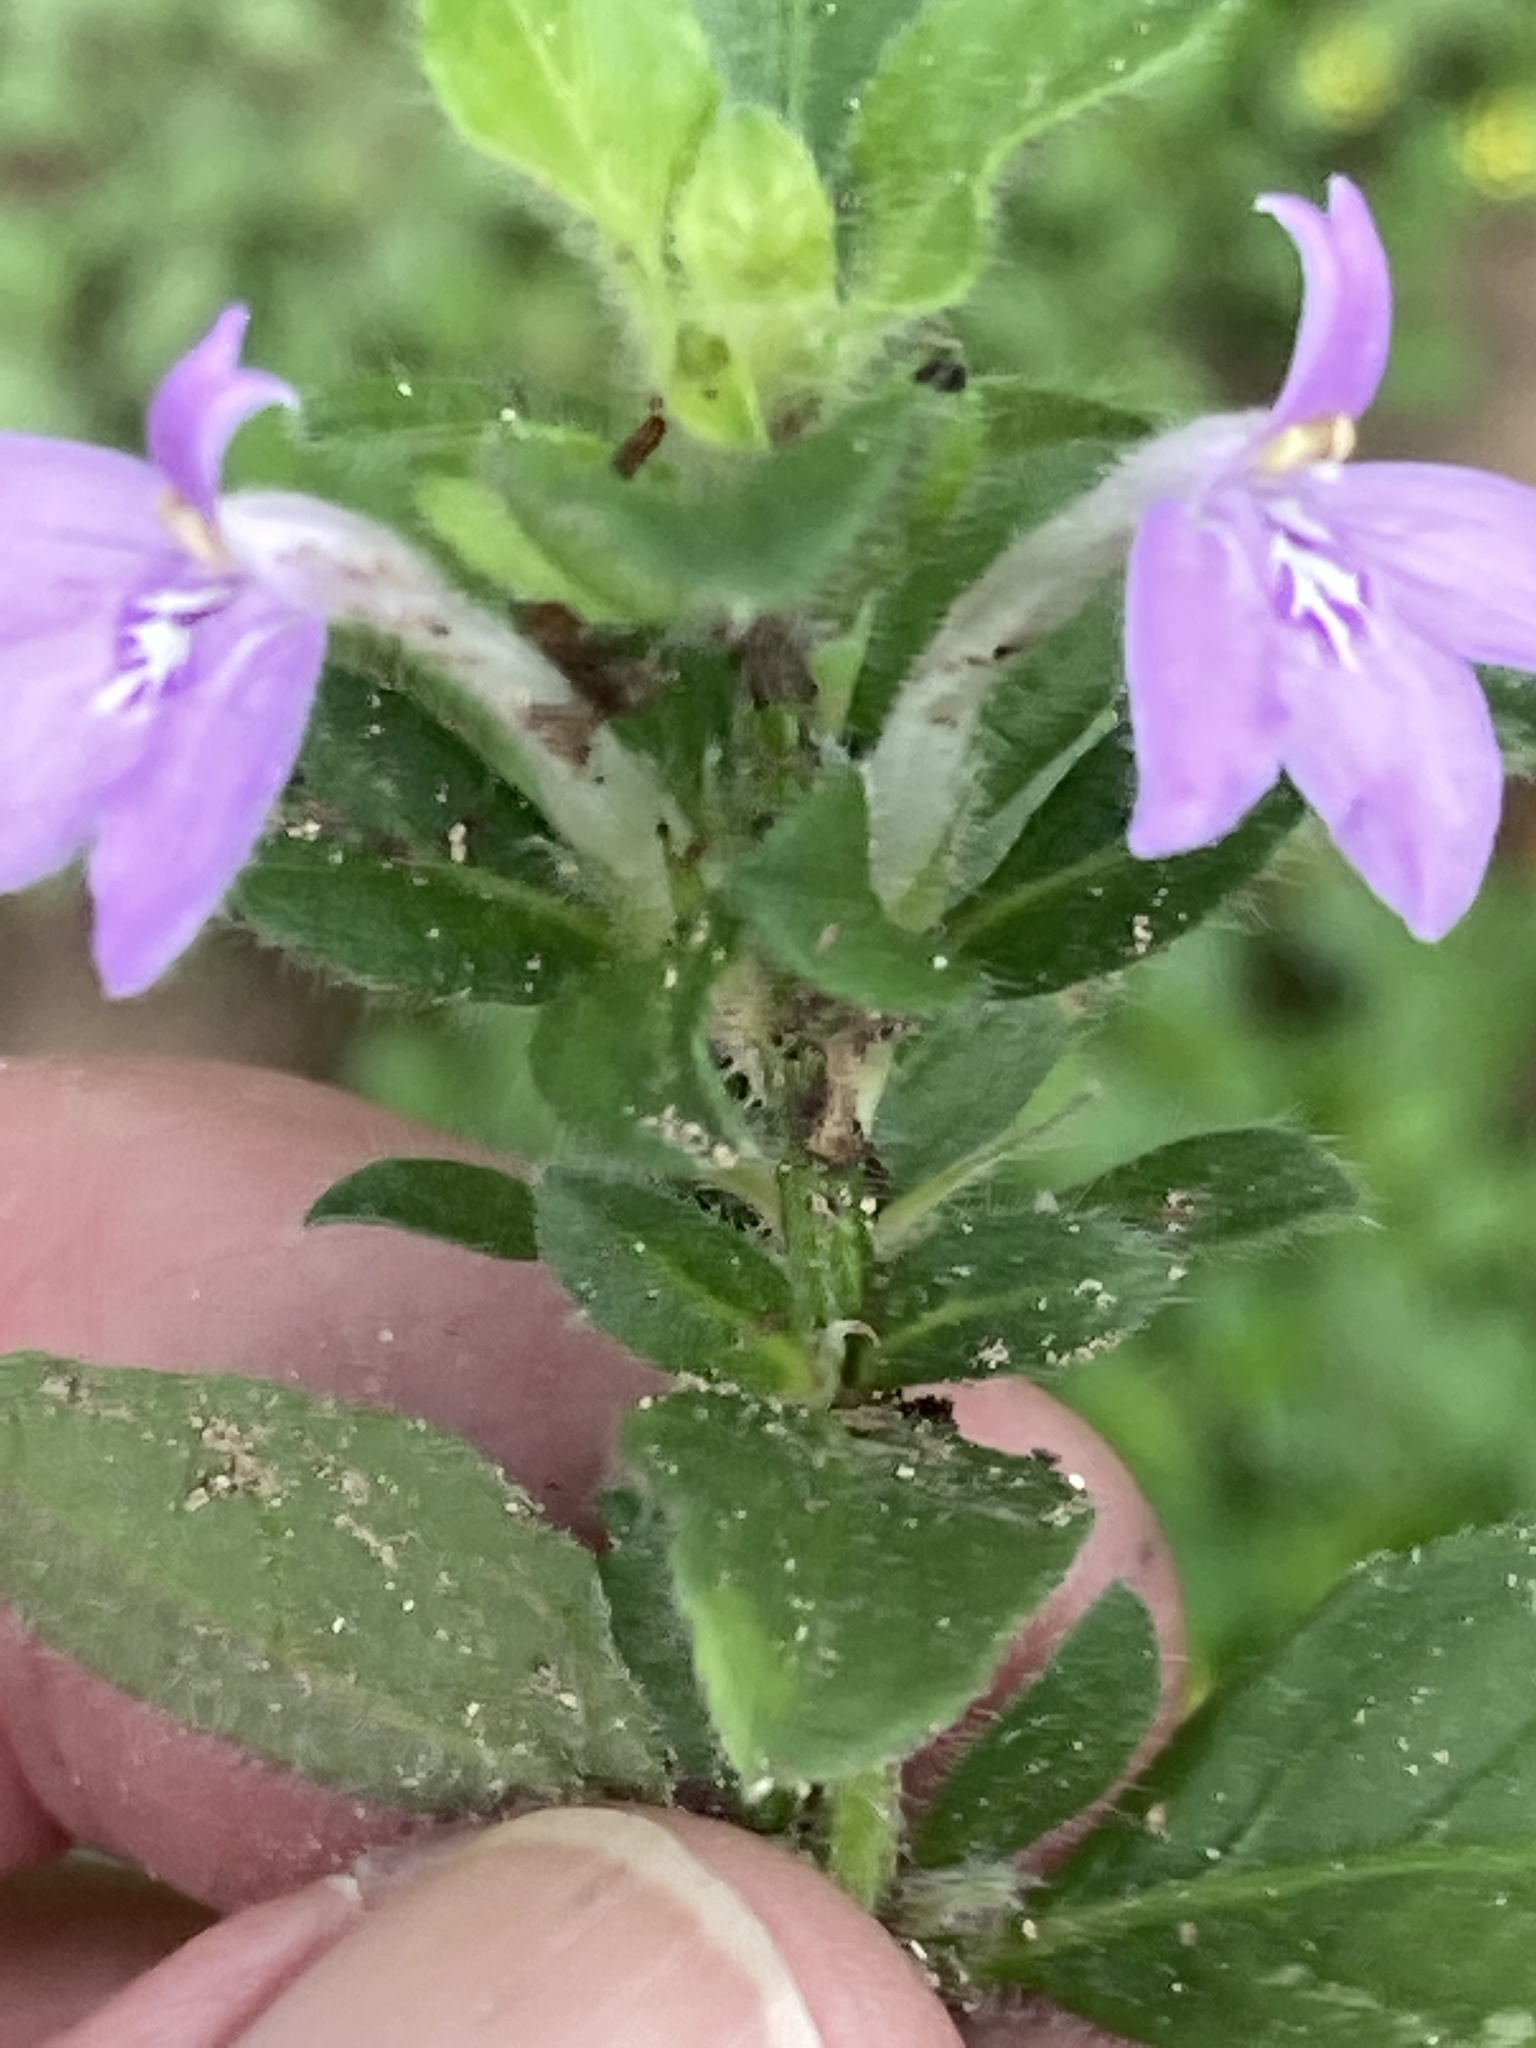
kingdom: Plantae
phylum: Tracheophyta
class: Magnoliopsida
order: Lamiales
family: Acanthaceae
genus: Justicia
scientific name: Justicia pilosella
